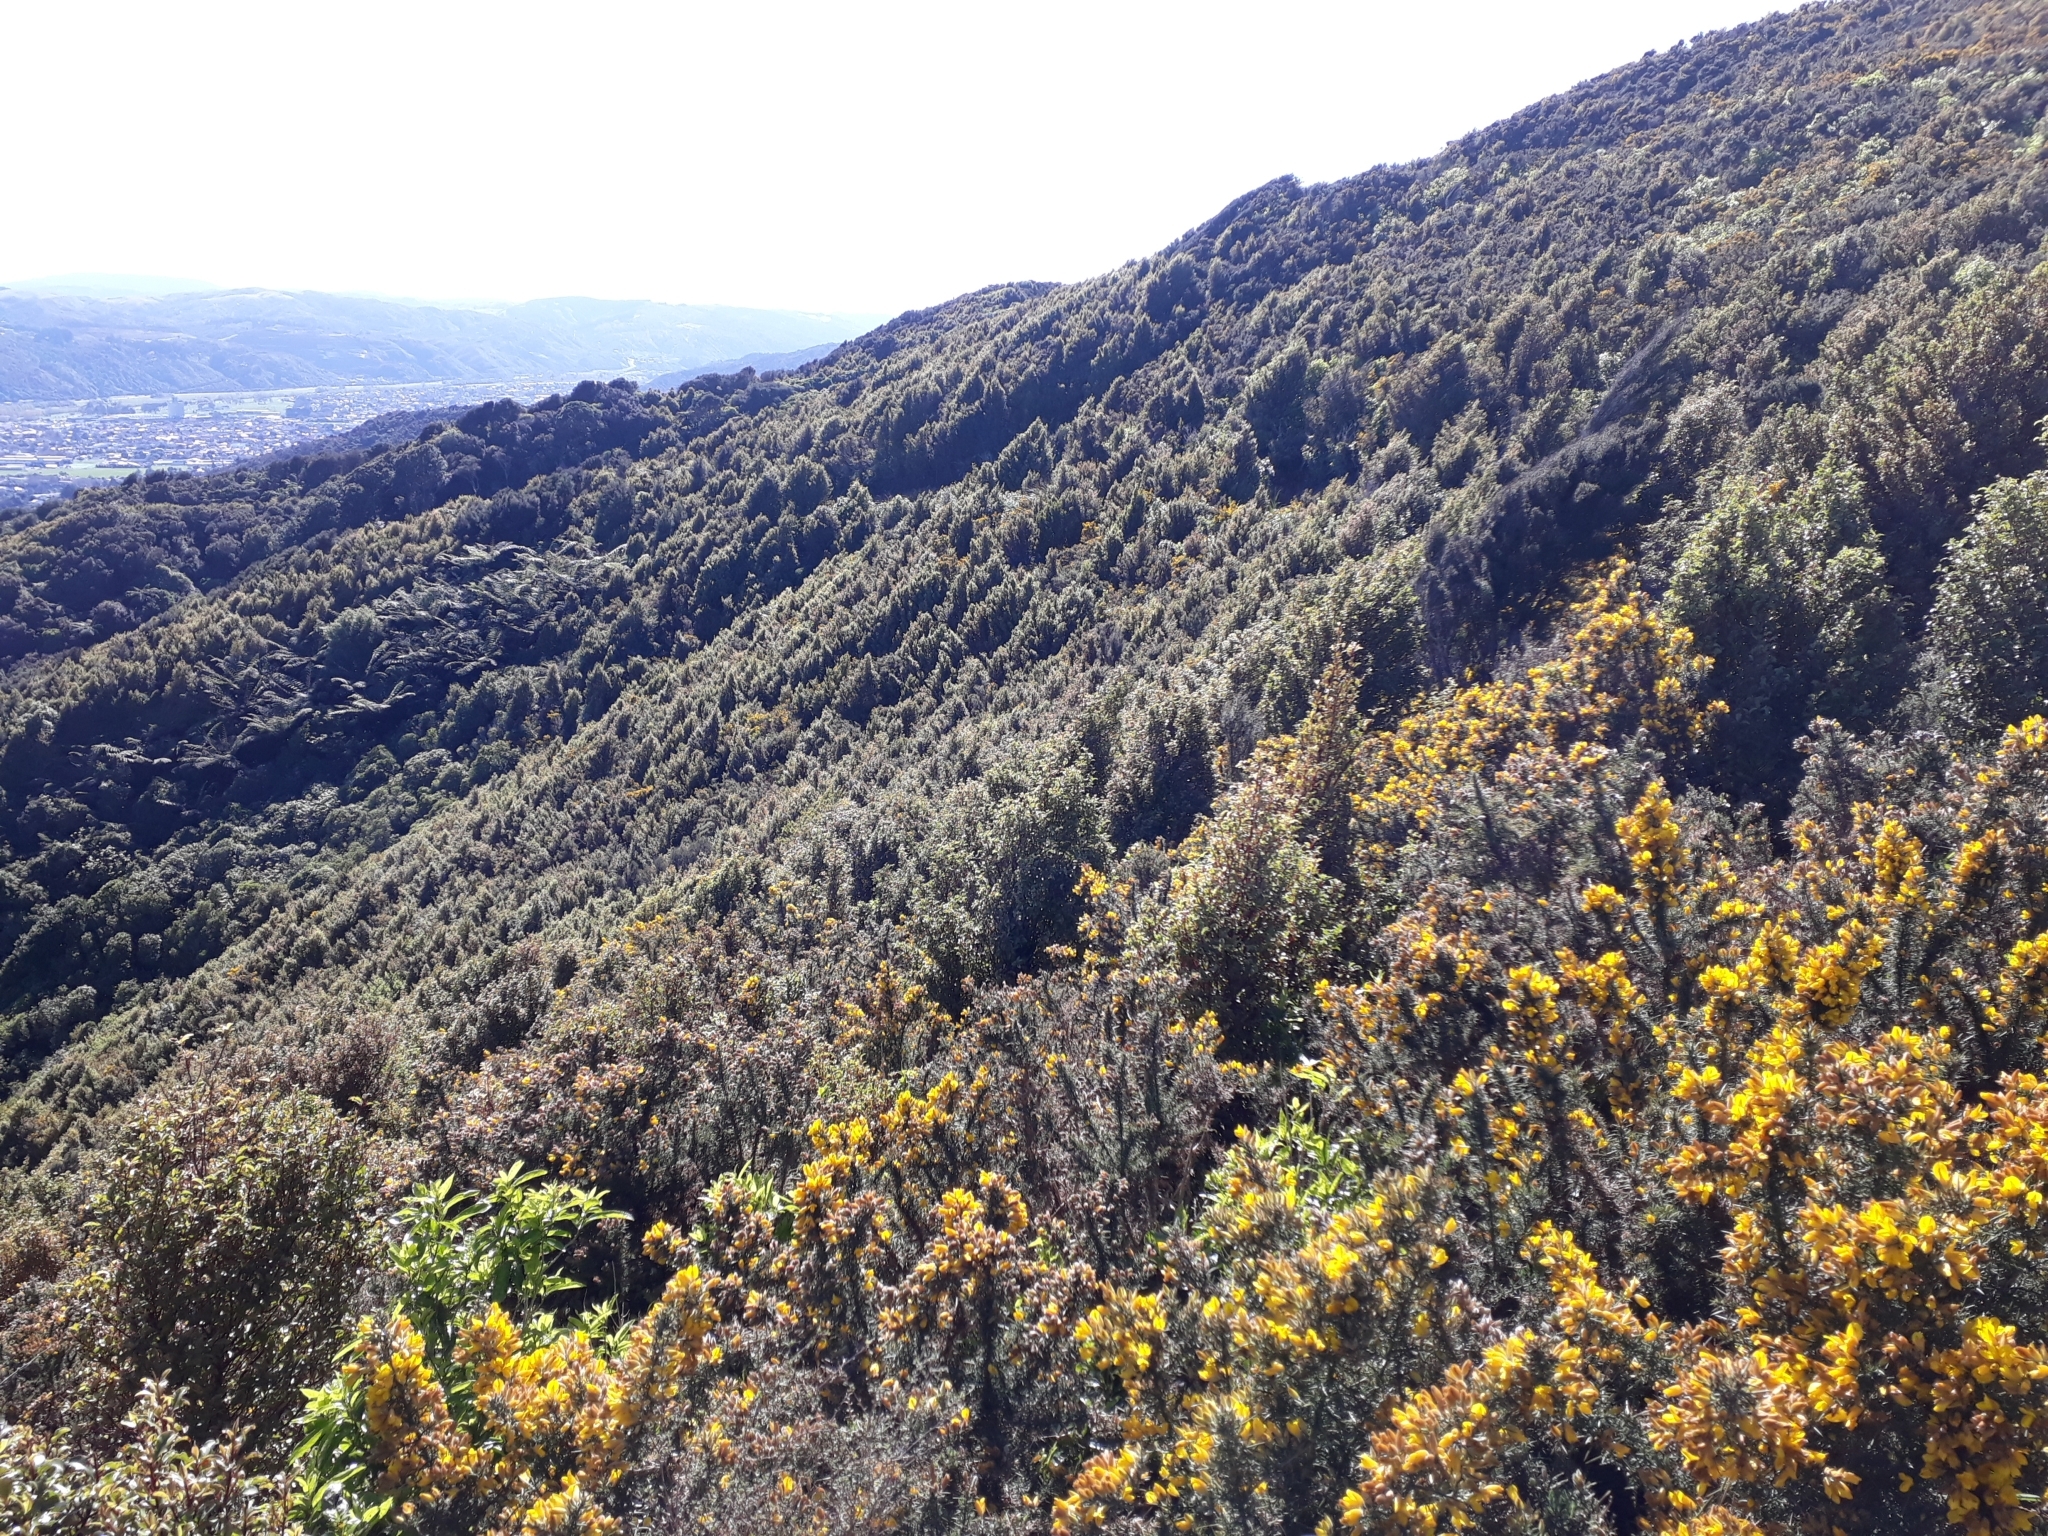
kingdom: Plantae
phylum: Tracheophyta
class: Magnoliopsida
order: Ericales
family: Primulaceae
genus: Myrsine
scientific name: Myrsine australis
